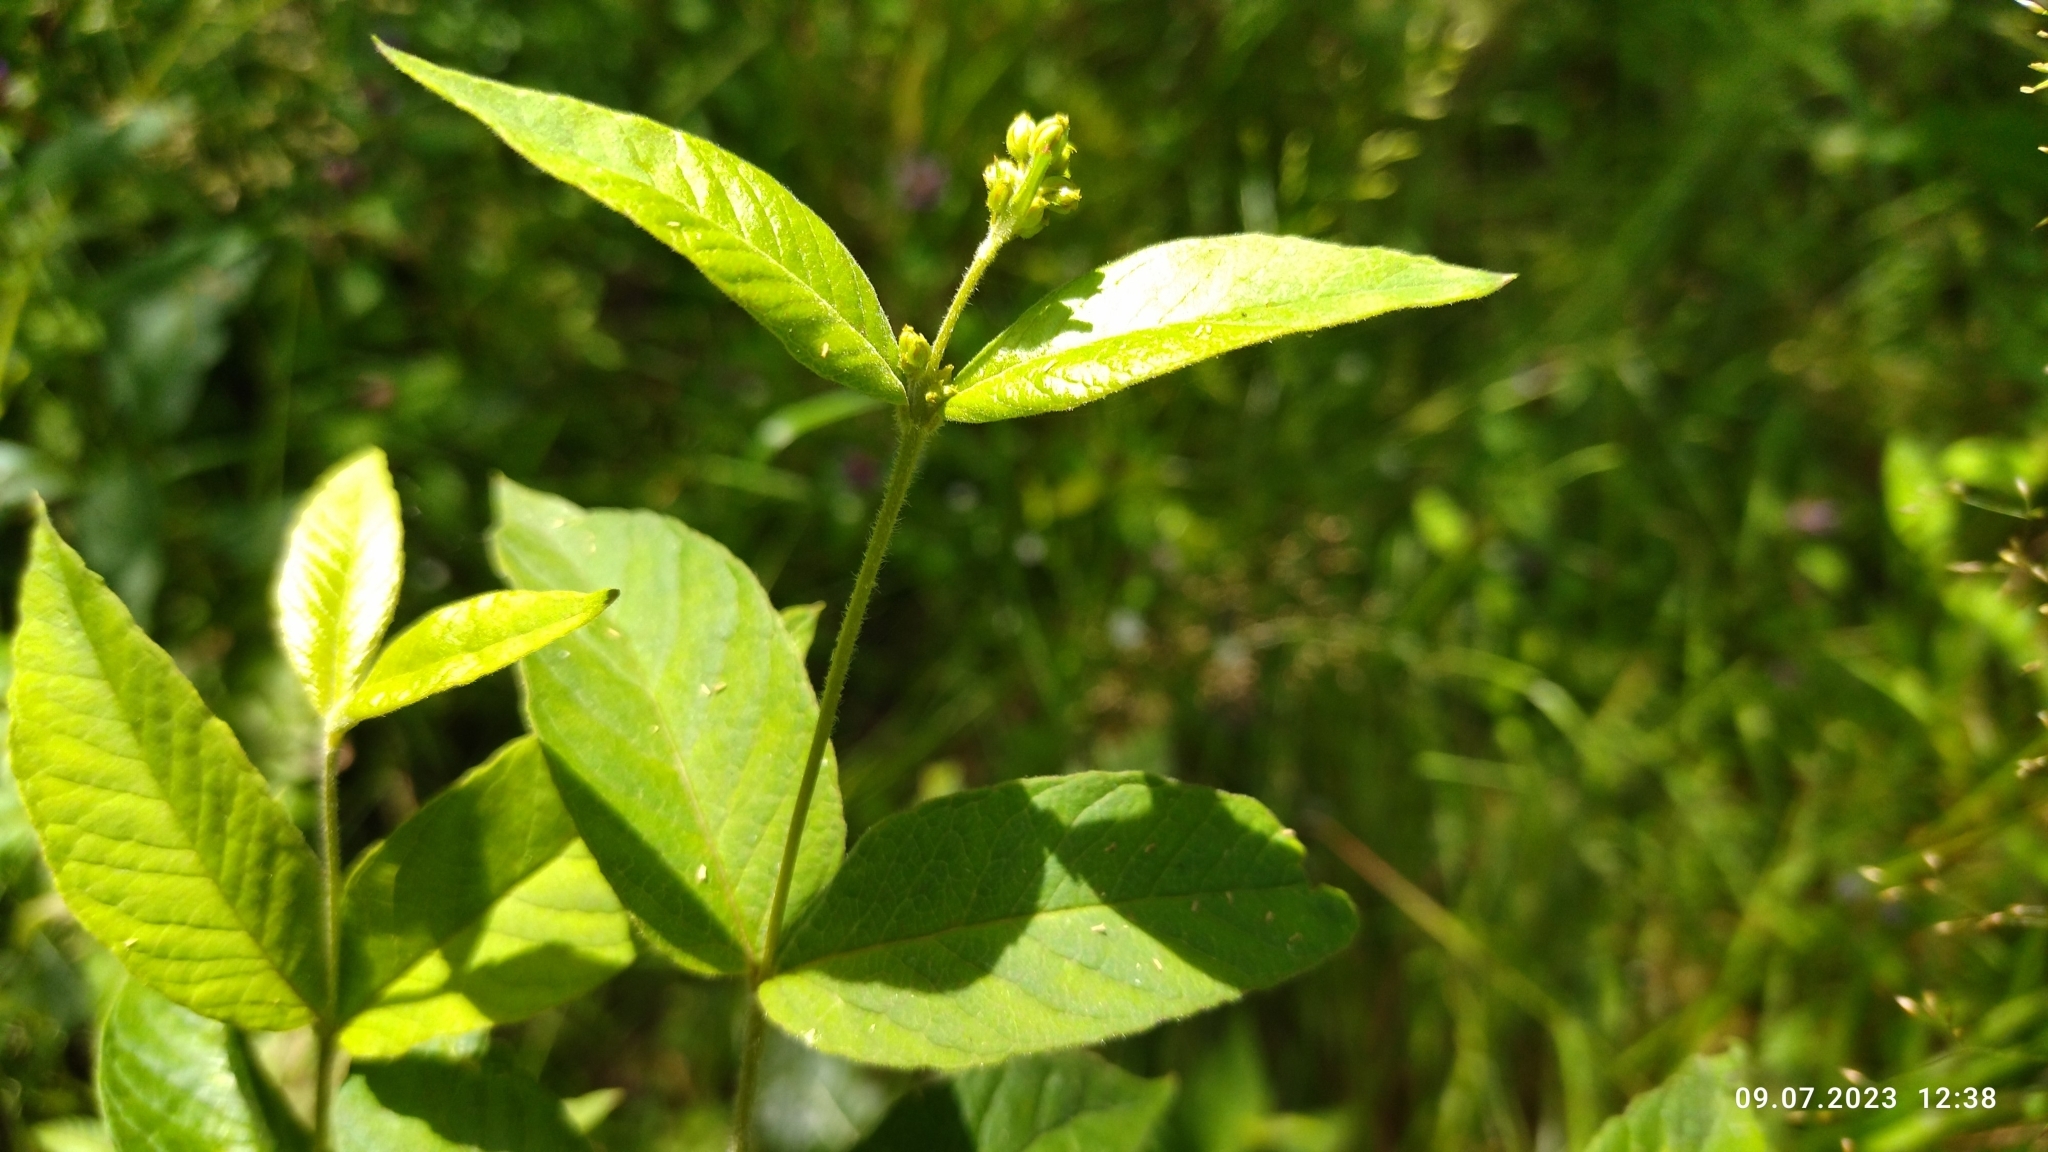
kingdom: Plantae
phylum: Tracheophyta
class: Magnoliopsida
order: Ericales
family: Primulaceae
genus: Lysimachia
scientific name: Lysimachia vulgaris
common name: Yellow loosestrife
